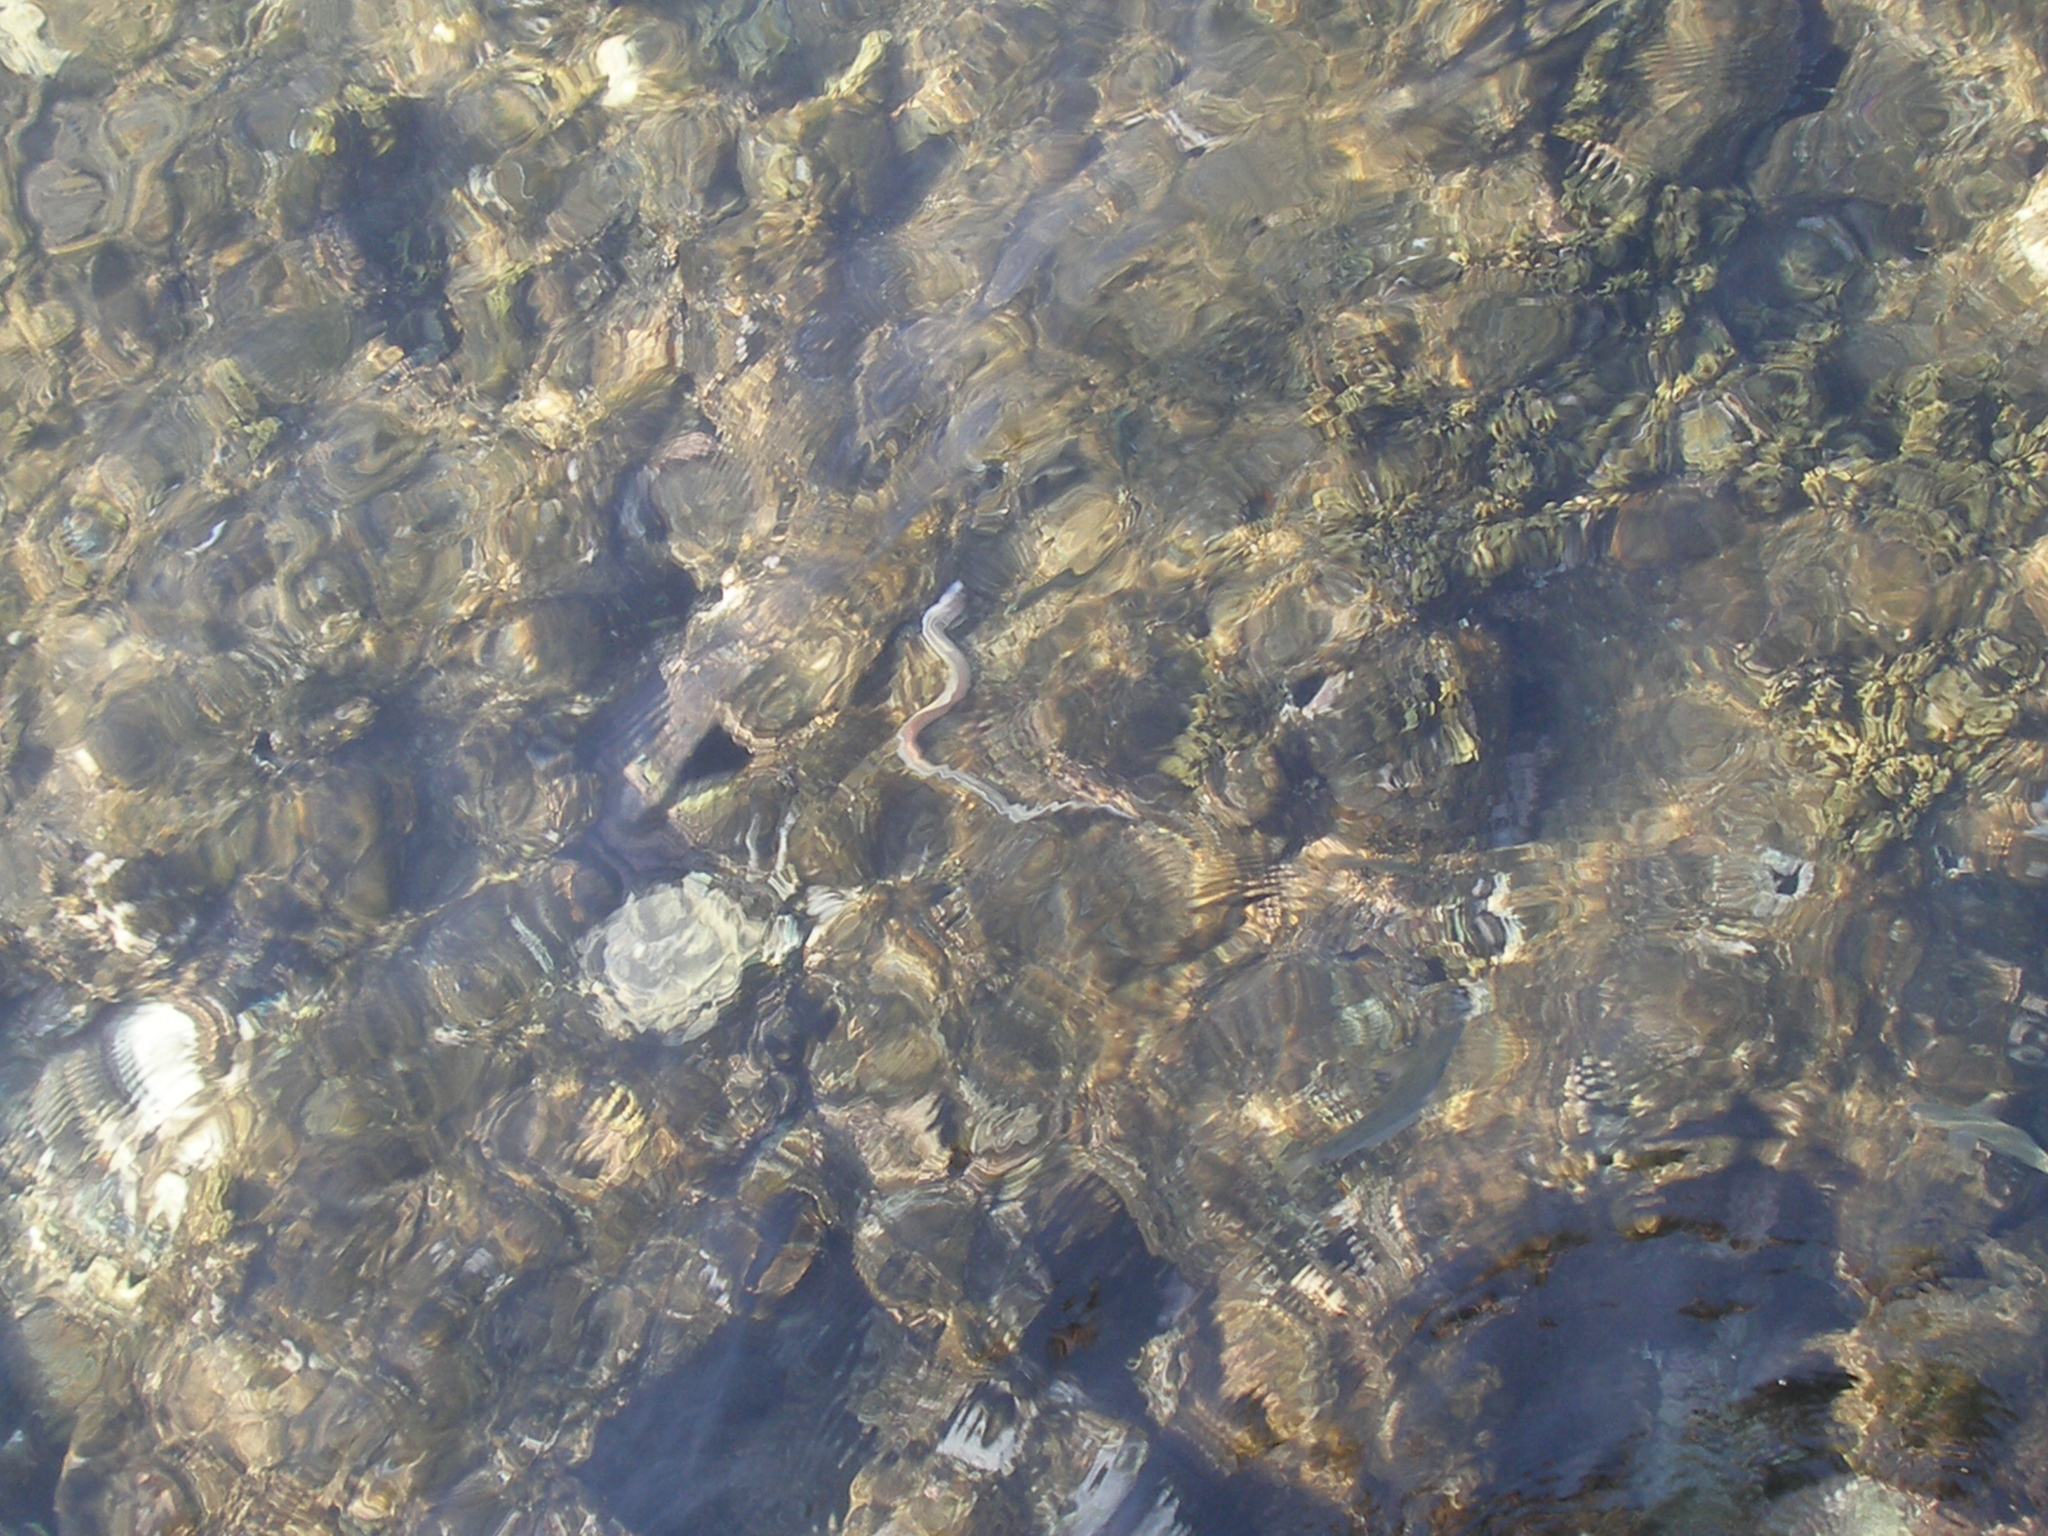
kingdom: Animalia
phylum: Chordata
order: Anguilliformes
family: Muraenidae
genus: Gymnothorax
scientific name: Gymnothorax griseus
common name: Geometric moray
